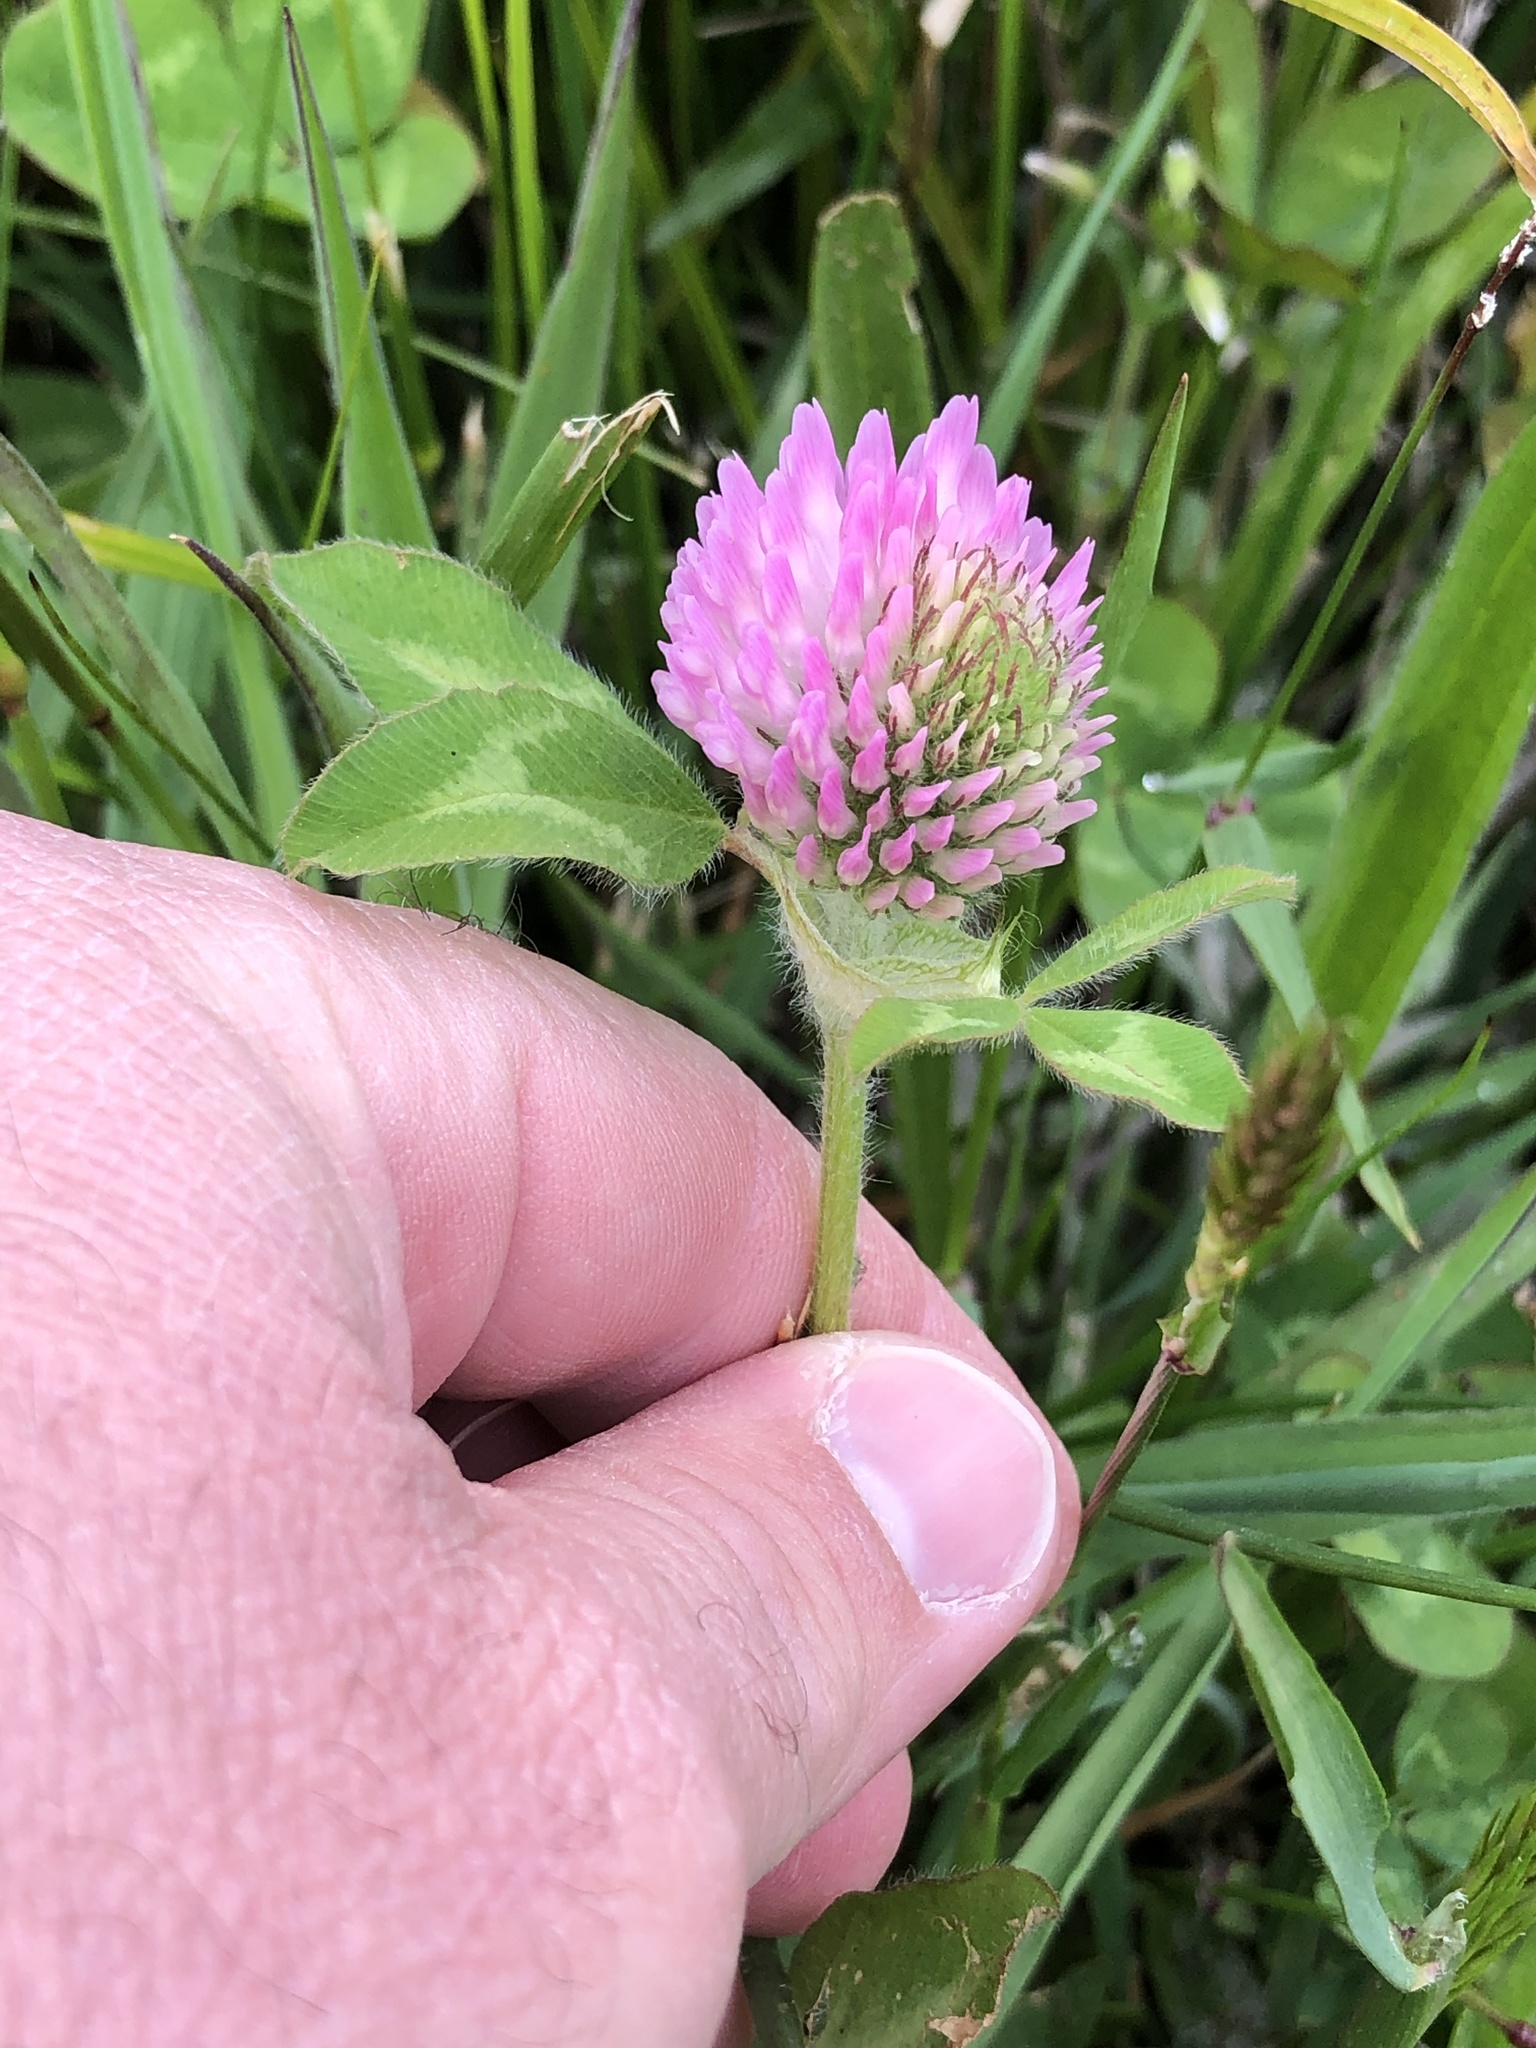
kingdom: Plantae
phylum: Tracheophyta
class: Magnoliopsida
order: Fabales
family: Fabaceae
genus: Trifolium
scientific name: Trifolium pratense
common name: Red clover
